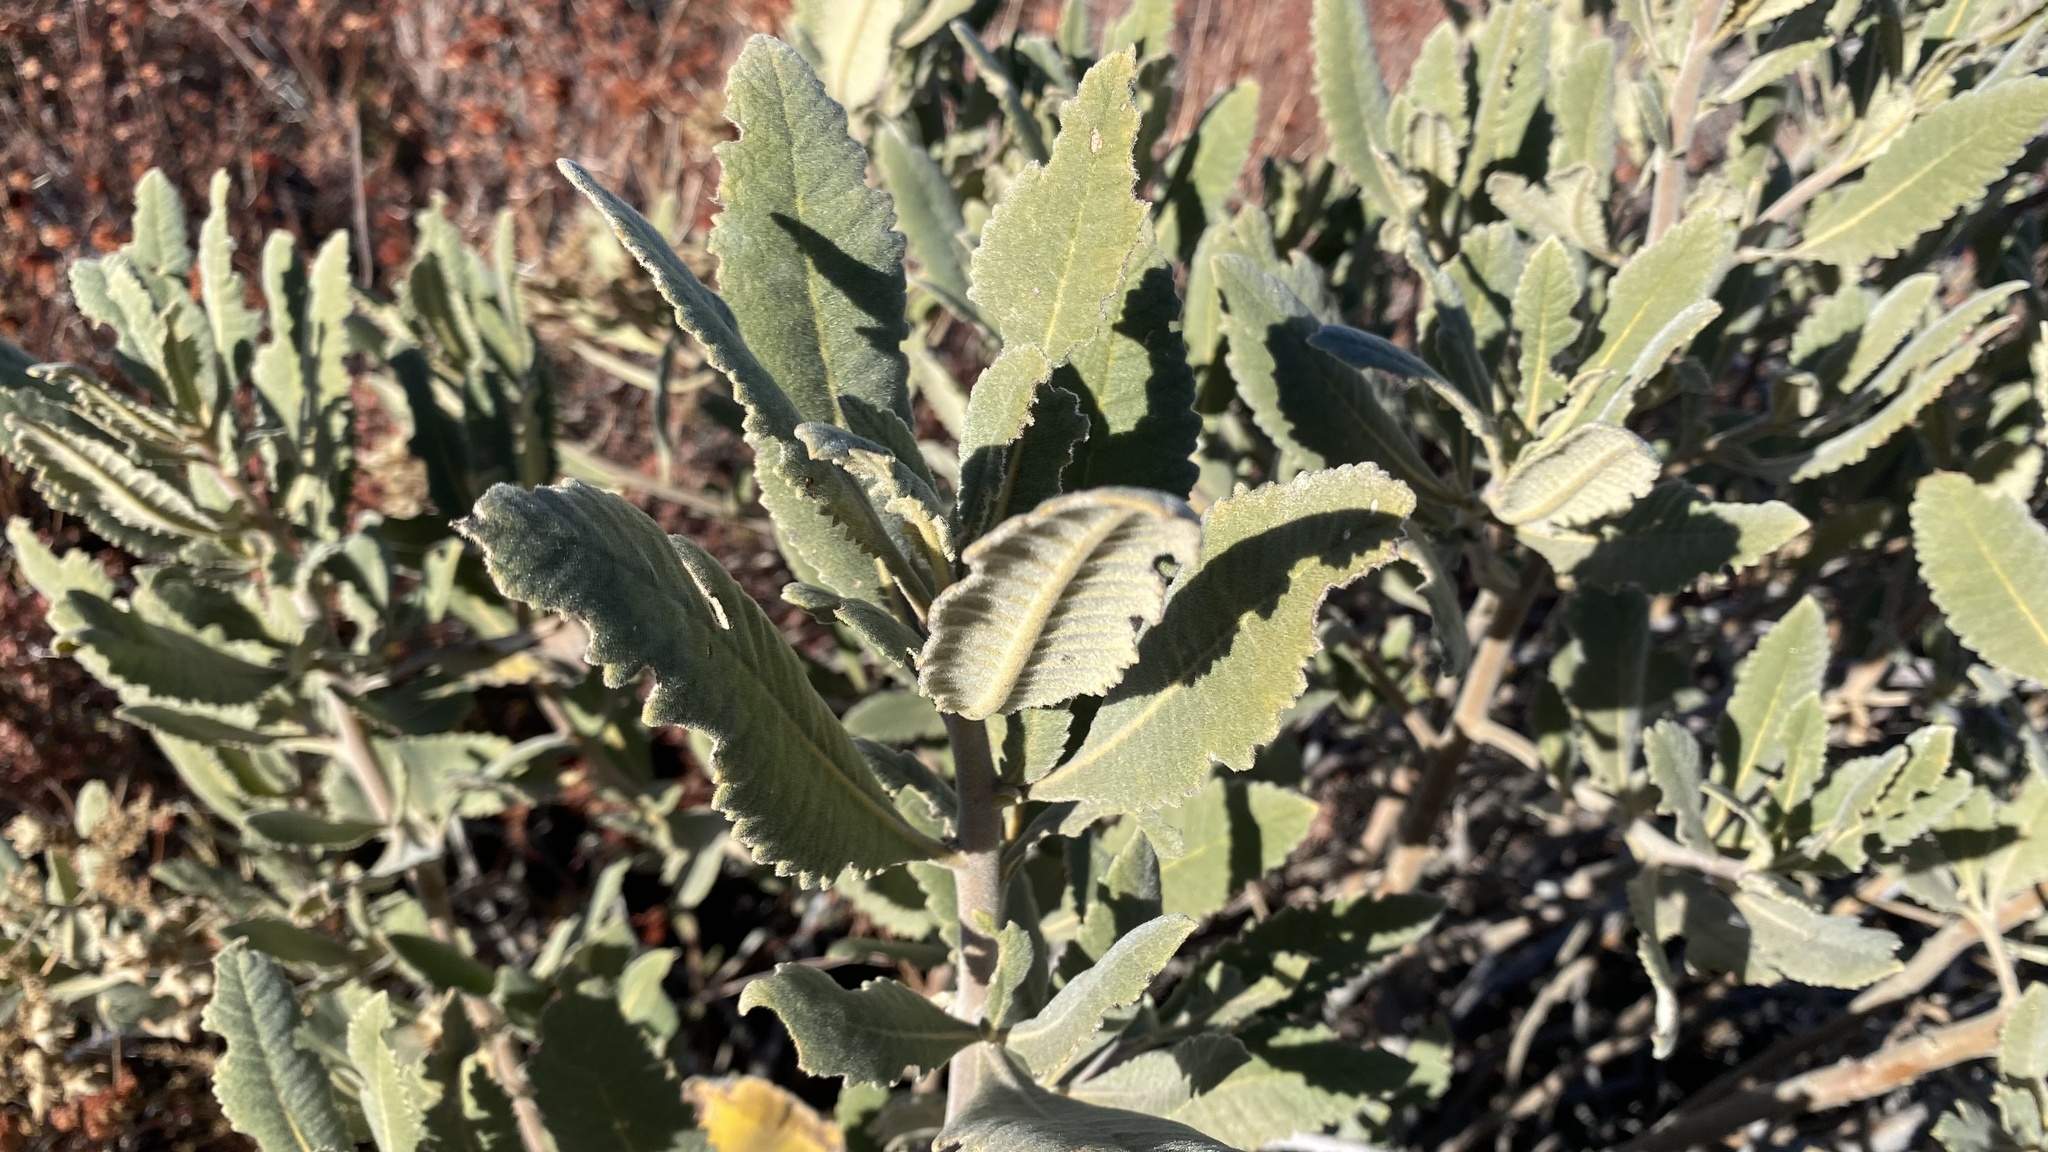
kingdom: Plantae
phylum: Tracheophyta
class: Magnoliopsida
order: Boraginales
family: Namaceae
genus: Eriodictyon
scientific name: Eriodictyon crassifolium
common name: Thick-leaf yerba-santa
